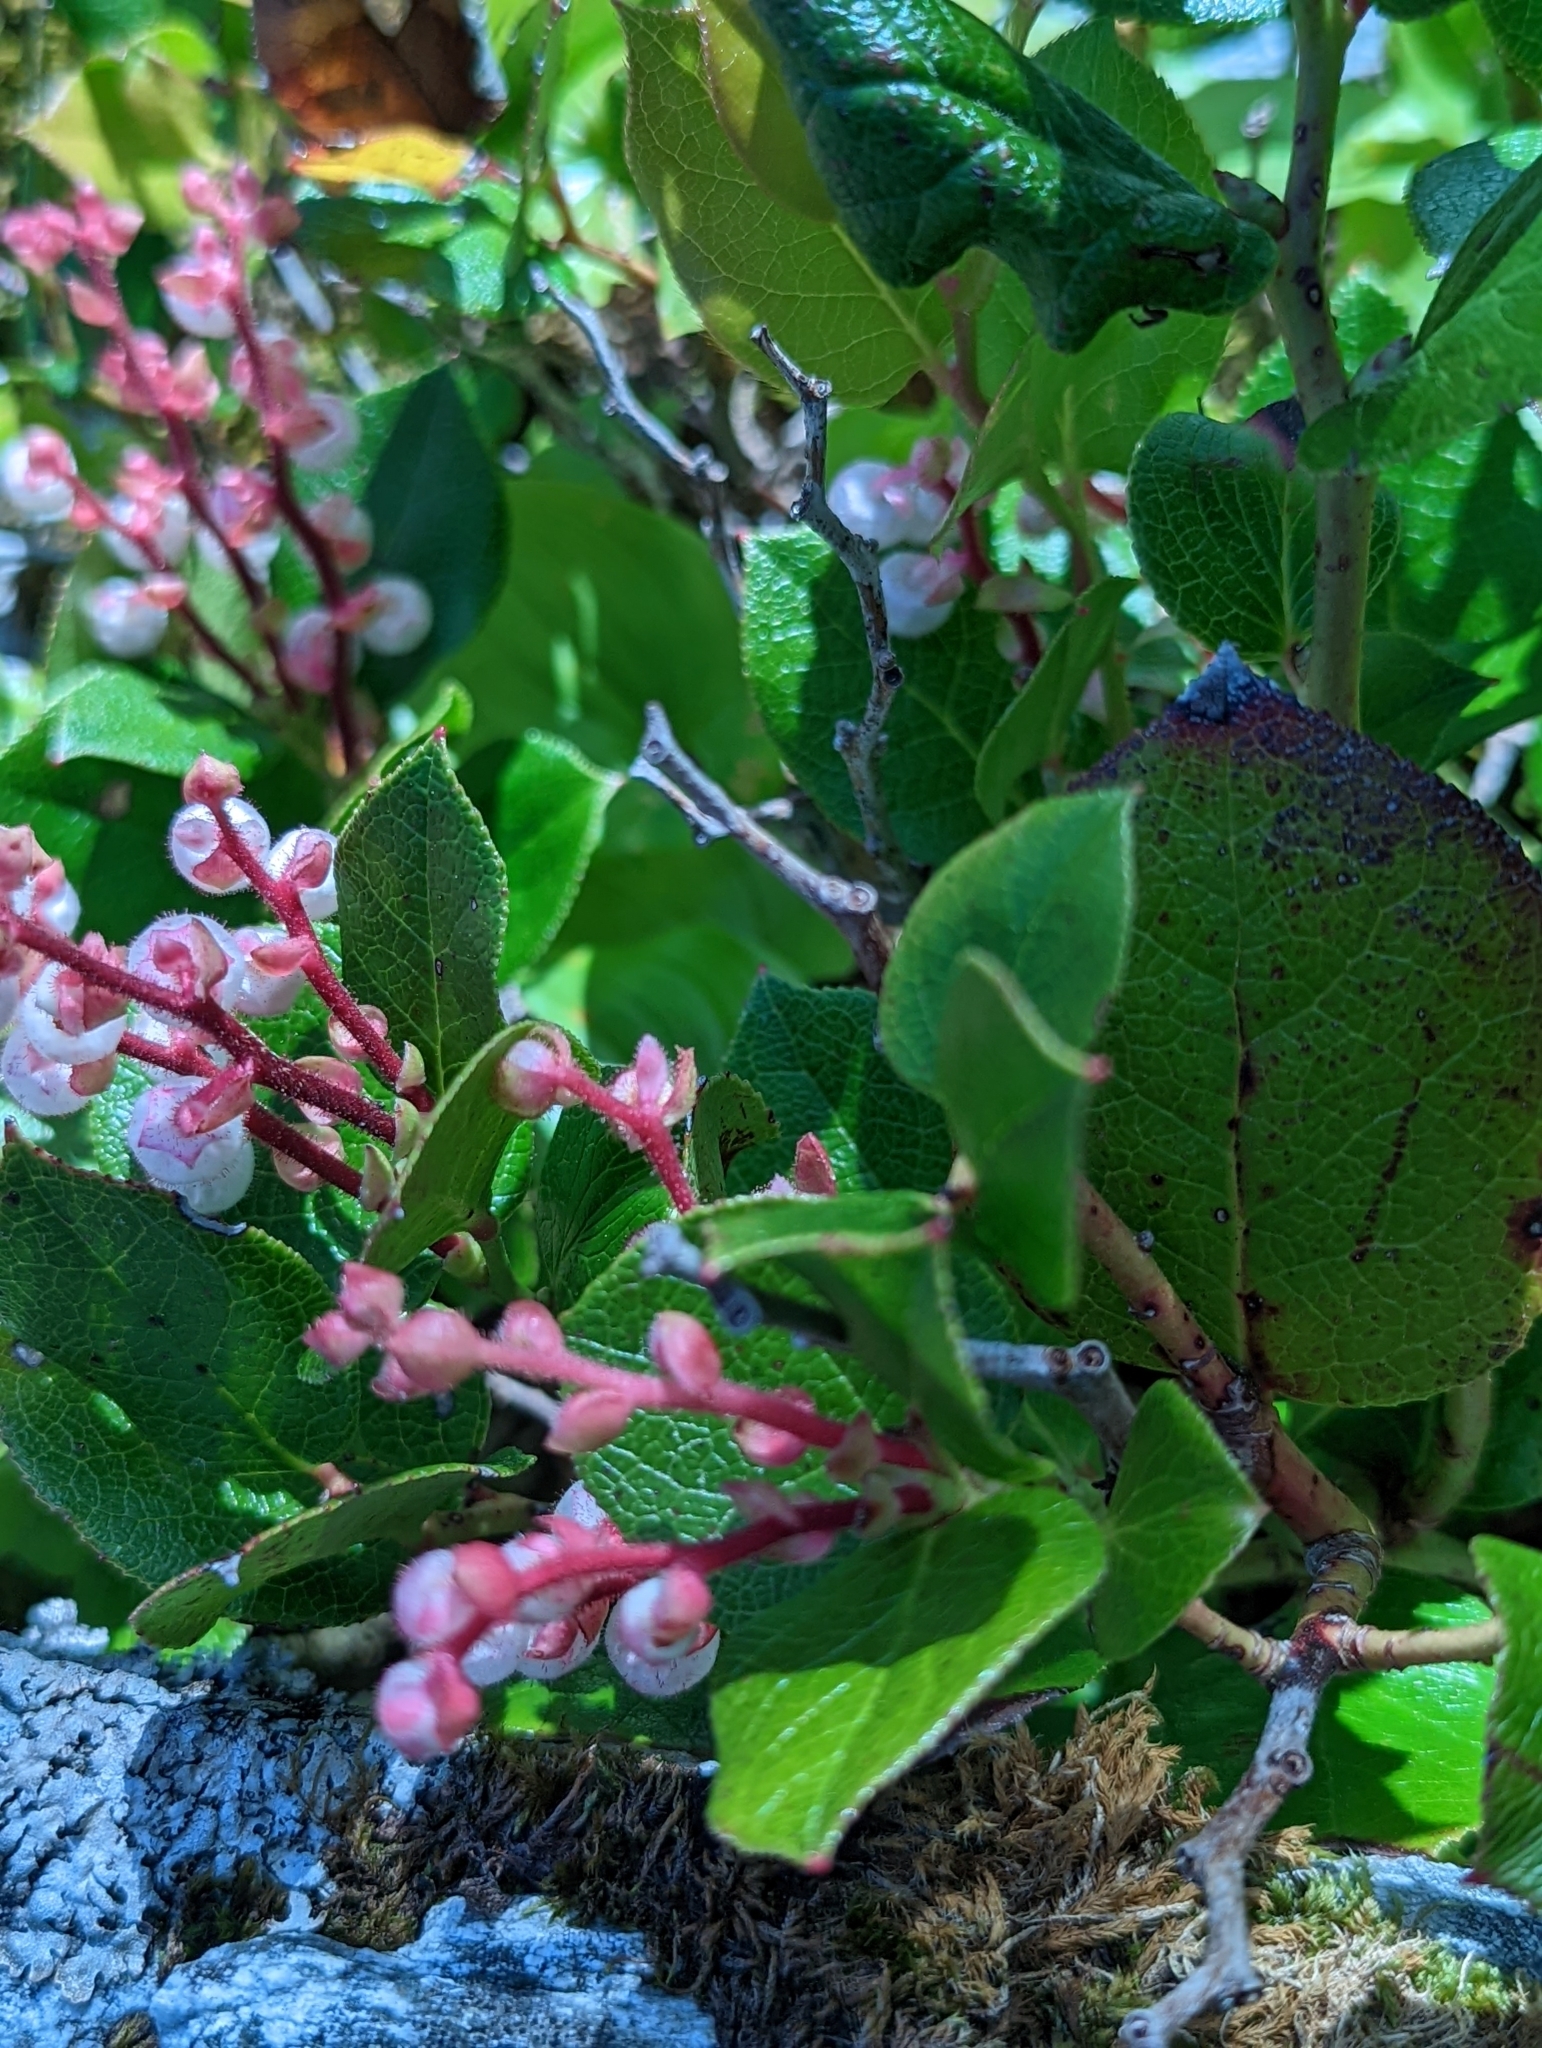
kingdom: Plantae
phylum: Tracheophyta
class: Magnoliopsida
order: Ericales
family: Ericaceae
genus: Gaultheria
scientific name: Gaultheria shallon
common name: Shallon
